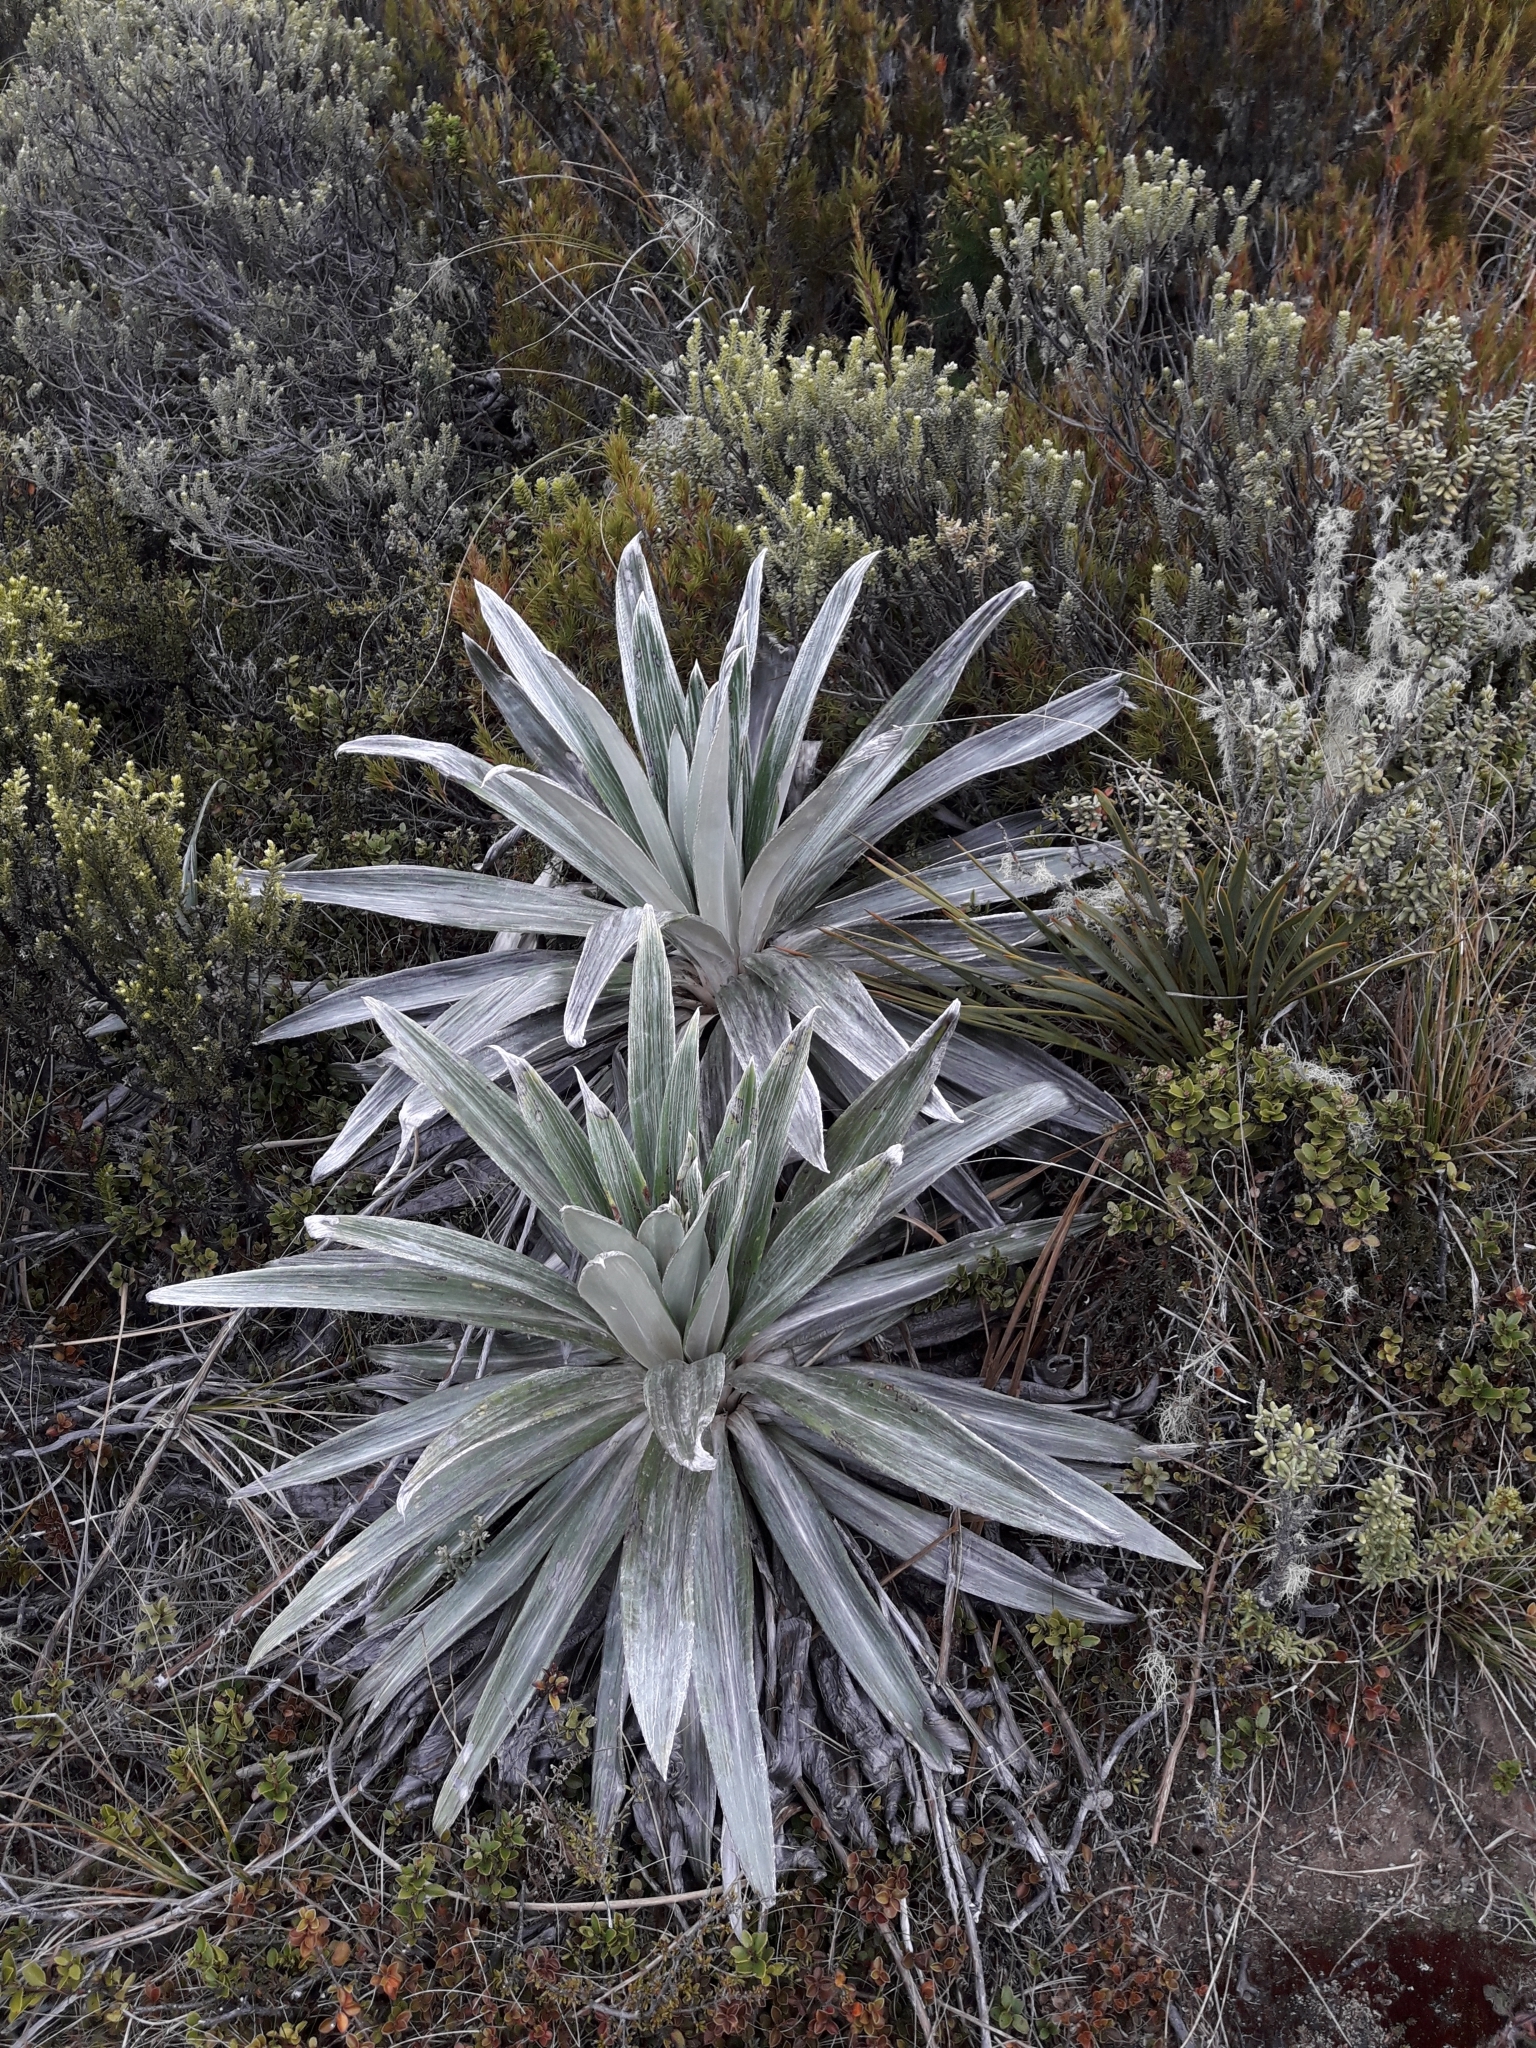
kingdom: Plantae
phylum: Tracheophyta
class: Magnoliopsida
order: Asterales
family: Asteraceae
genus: Celmisia
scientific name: Celmisia semicordata
